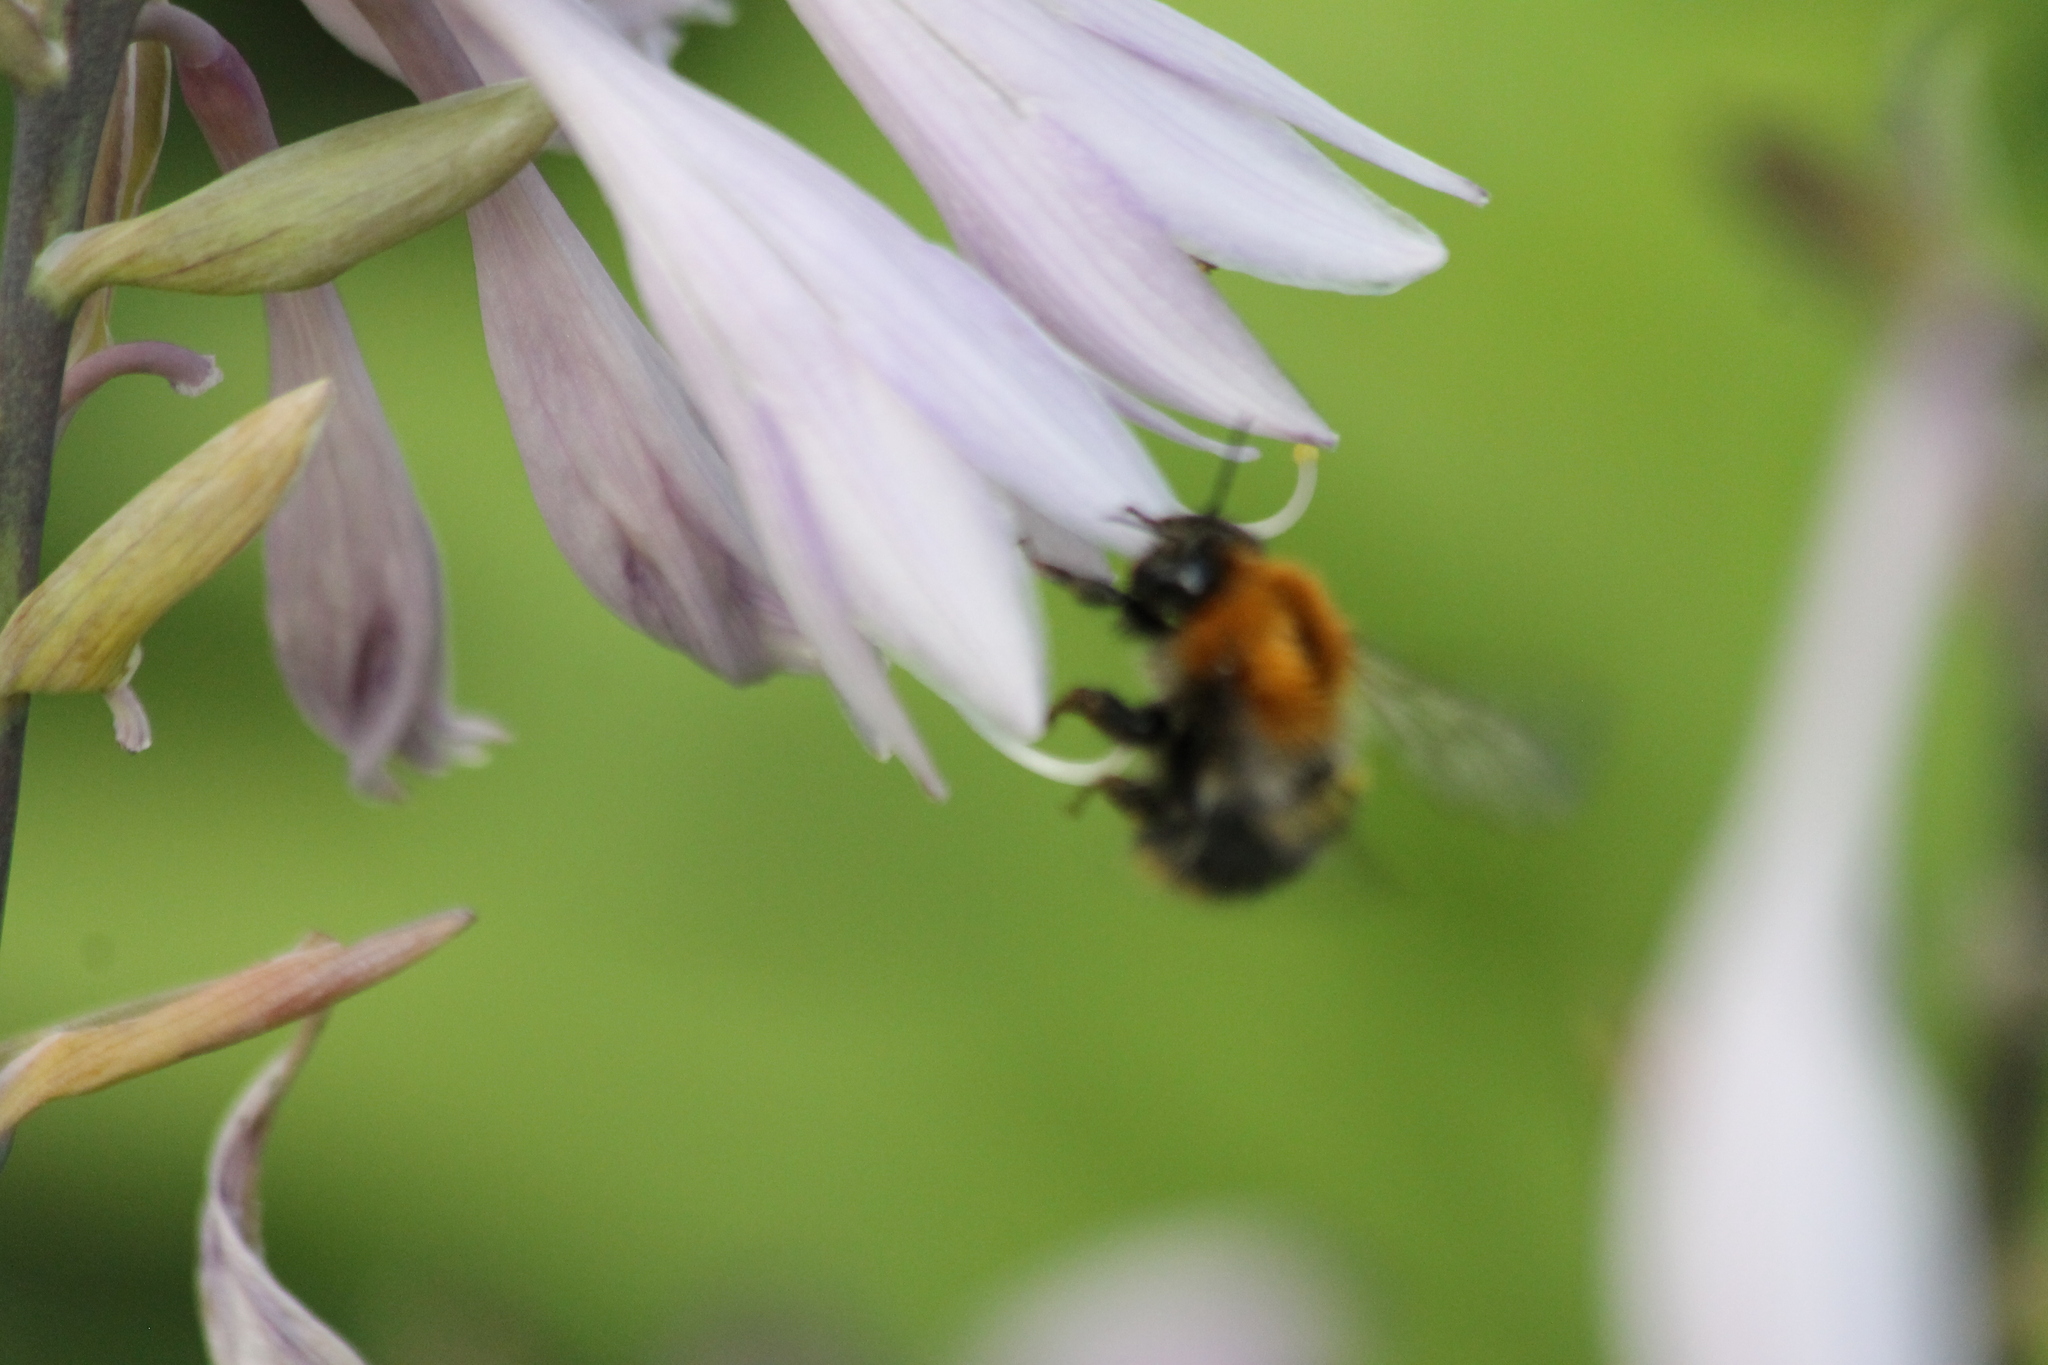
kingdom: Animalia
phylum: Arthropoda
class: Insecta
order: Hymenoptera
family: Apidae
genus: Bombus
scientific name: Bombus pascuorum
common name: Common carder bee
